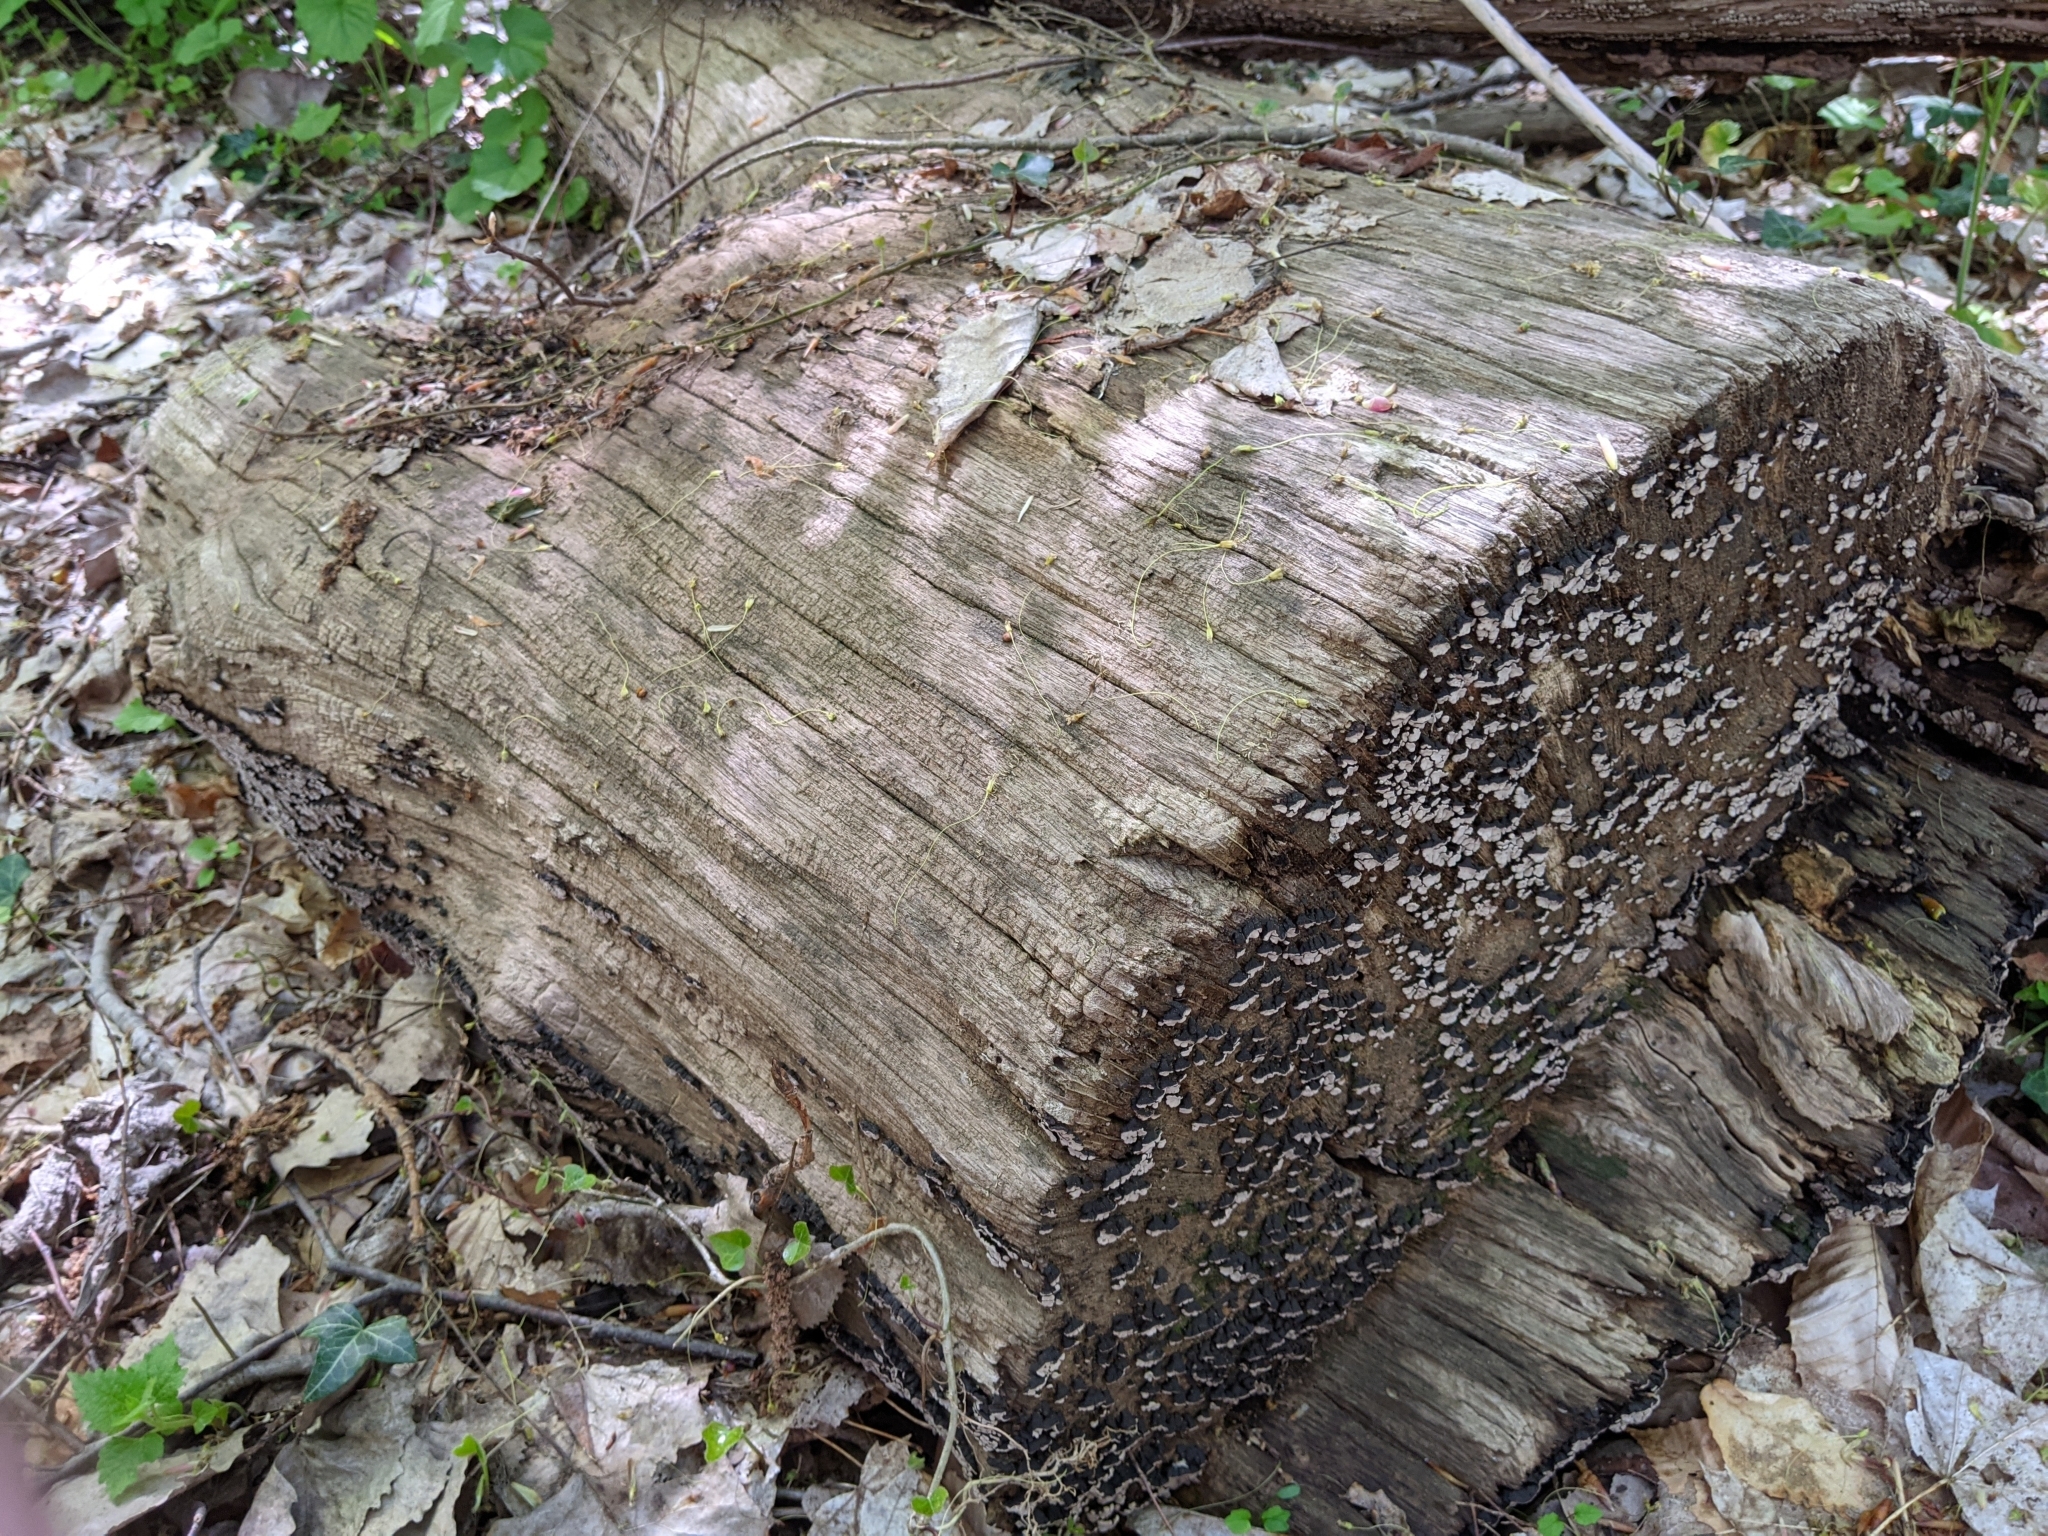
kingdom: Fungi
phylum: Basidiomycota
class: Agaricomycetes
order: Russulales
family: Stereaceae
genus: Xylobolus
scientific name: Xylobolus frustulatus
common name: Ceramic parchment
